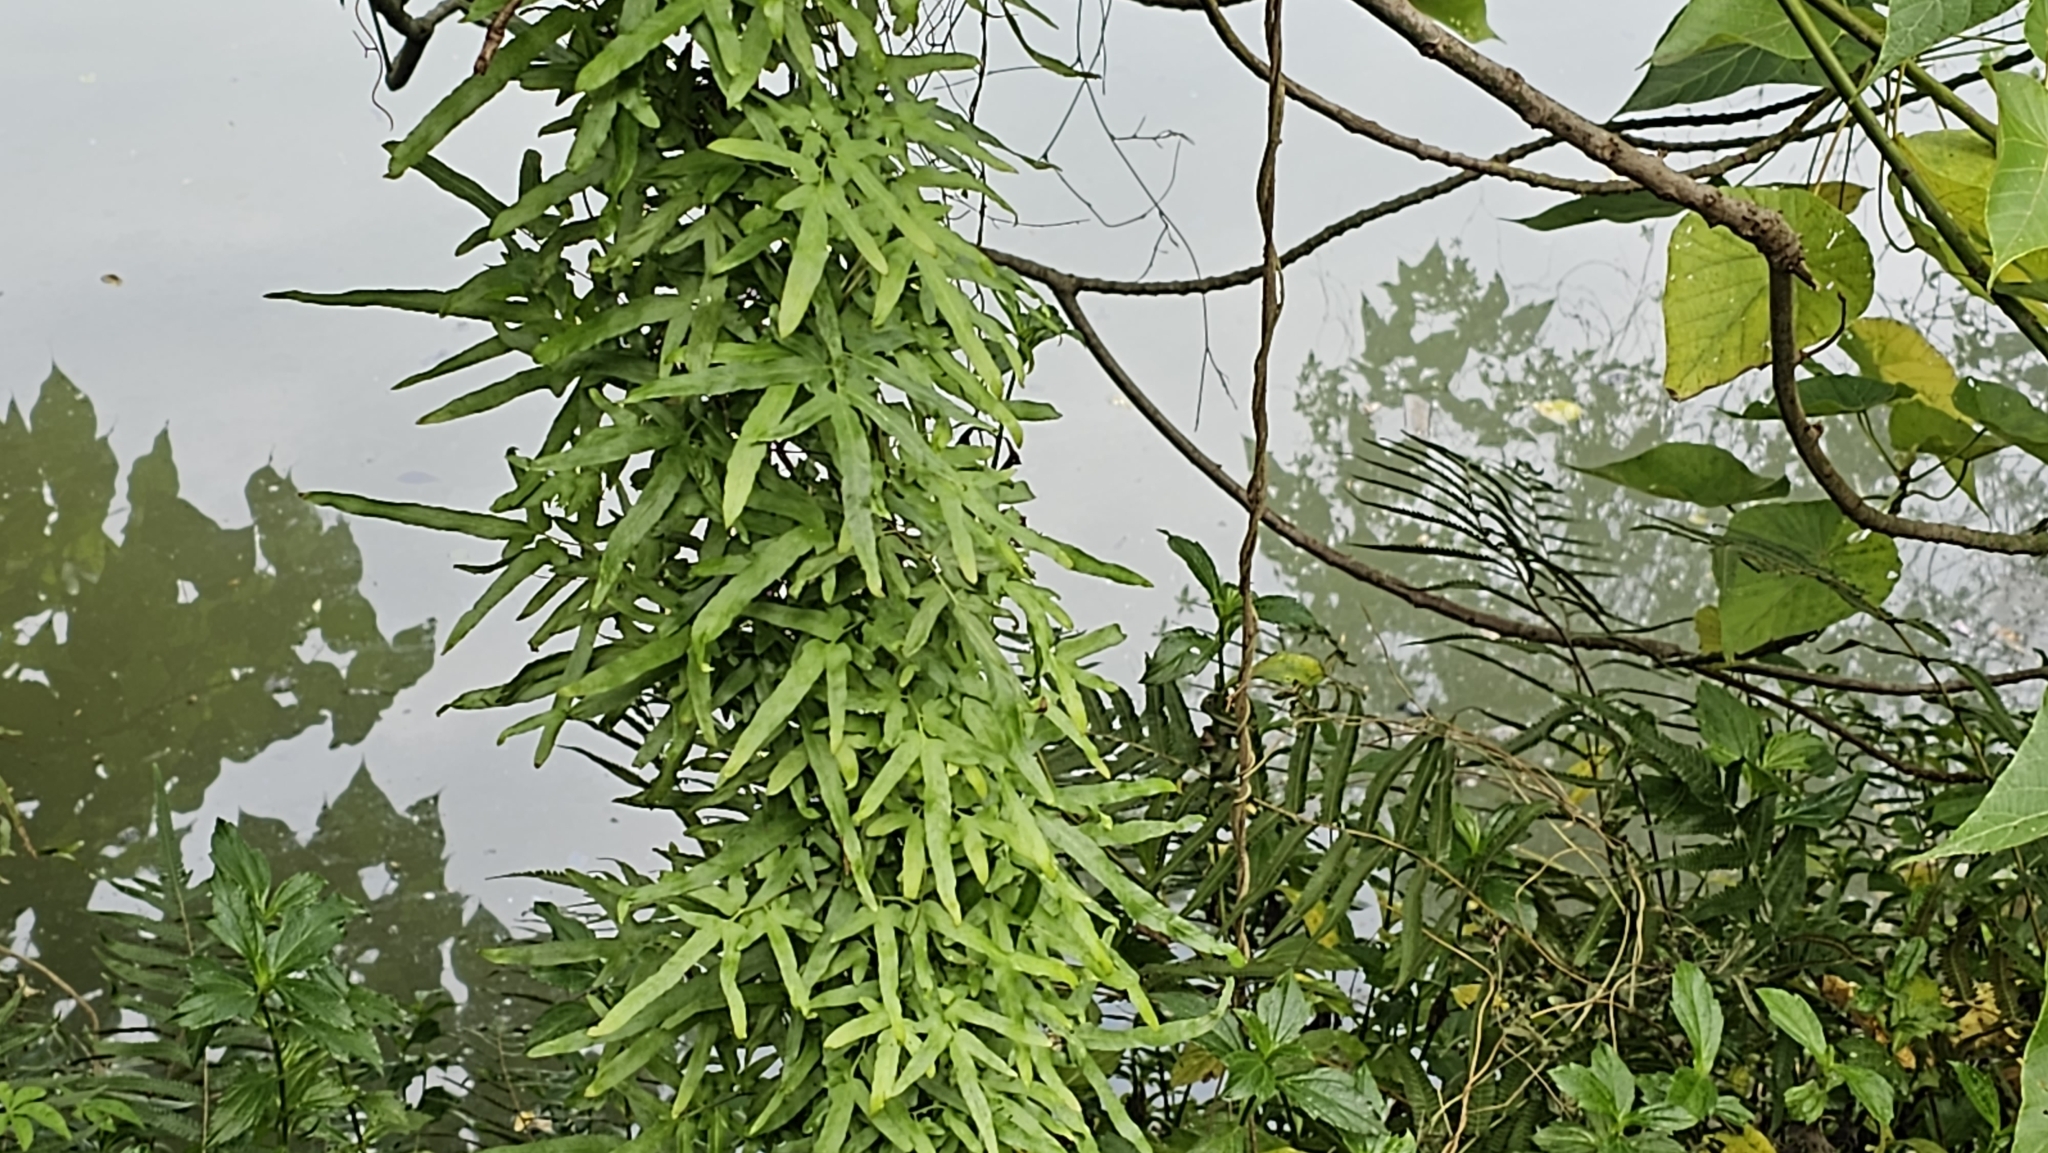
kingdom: Plantae
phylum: Tracheophyta
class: Polypodiopsida
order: Schizaeales
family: Lygodiaceae
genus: Lygodium
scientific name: Lygodium japonicum
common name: Japanese climbing fern
